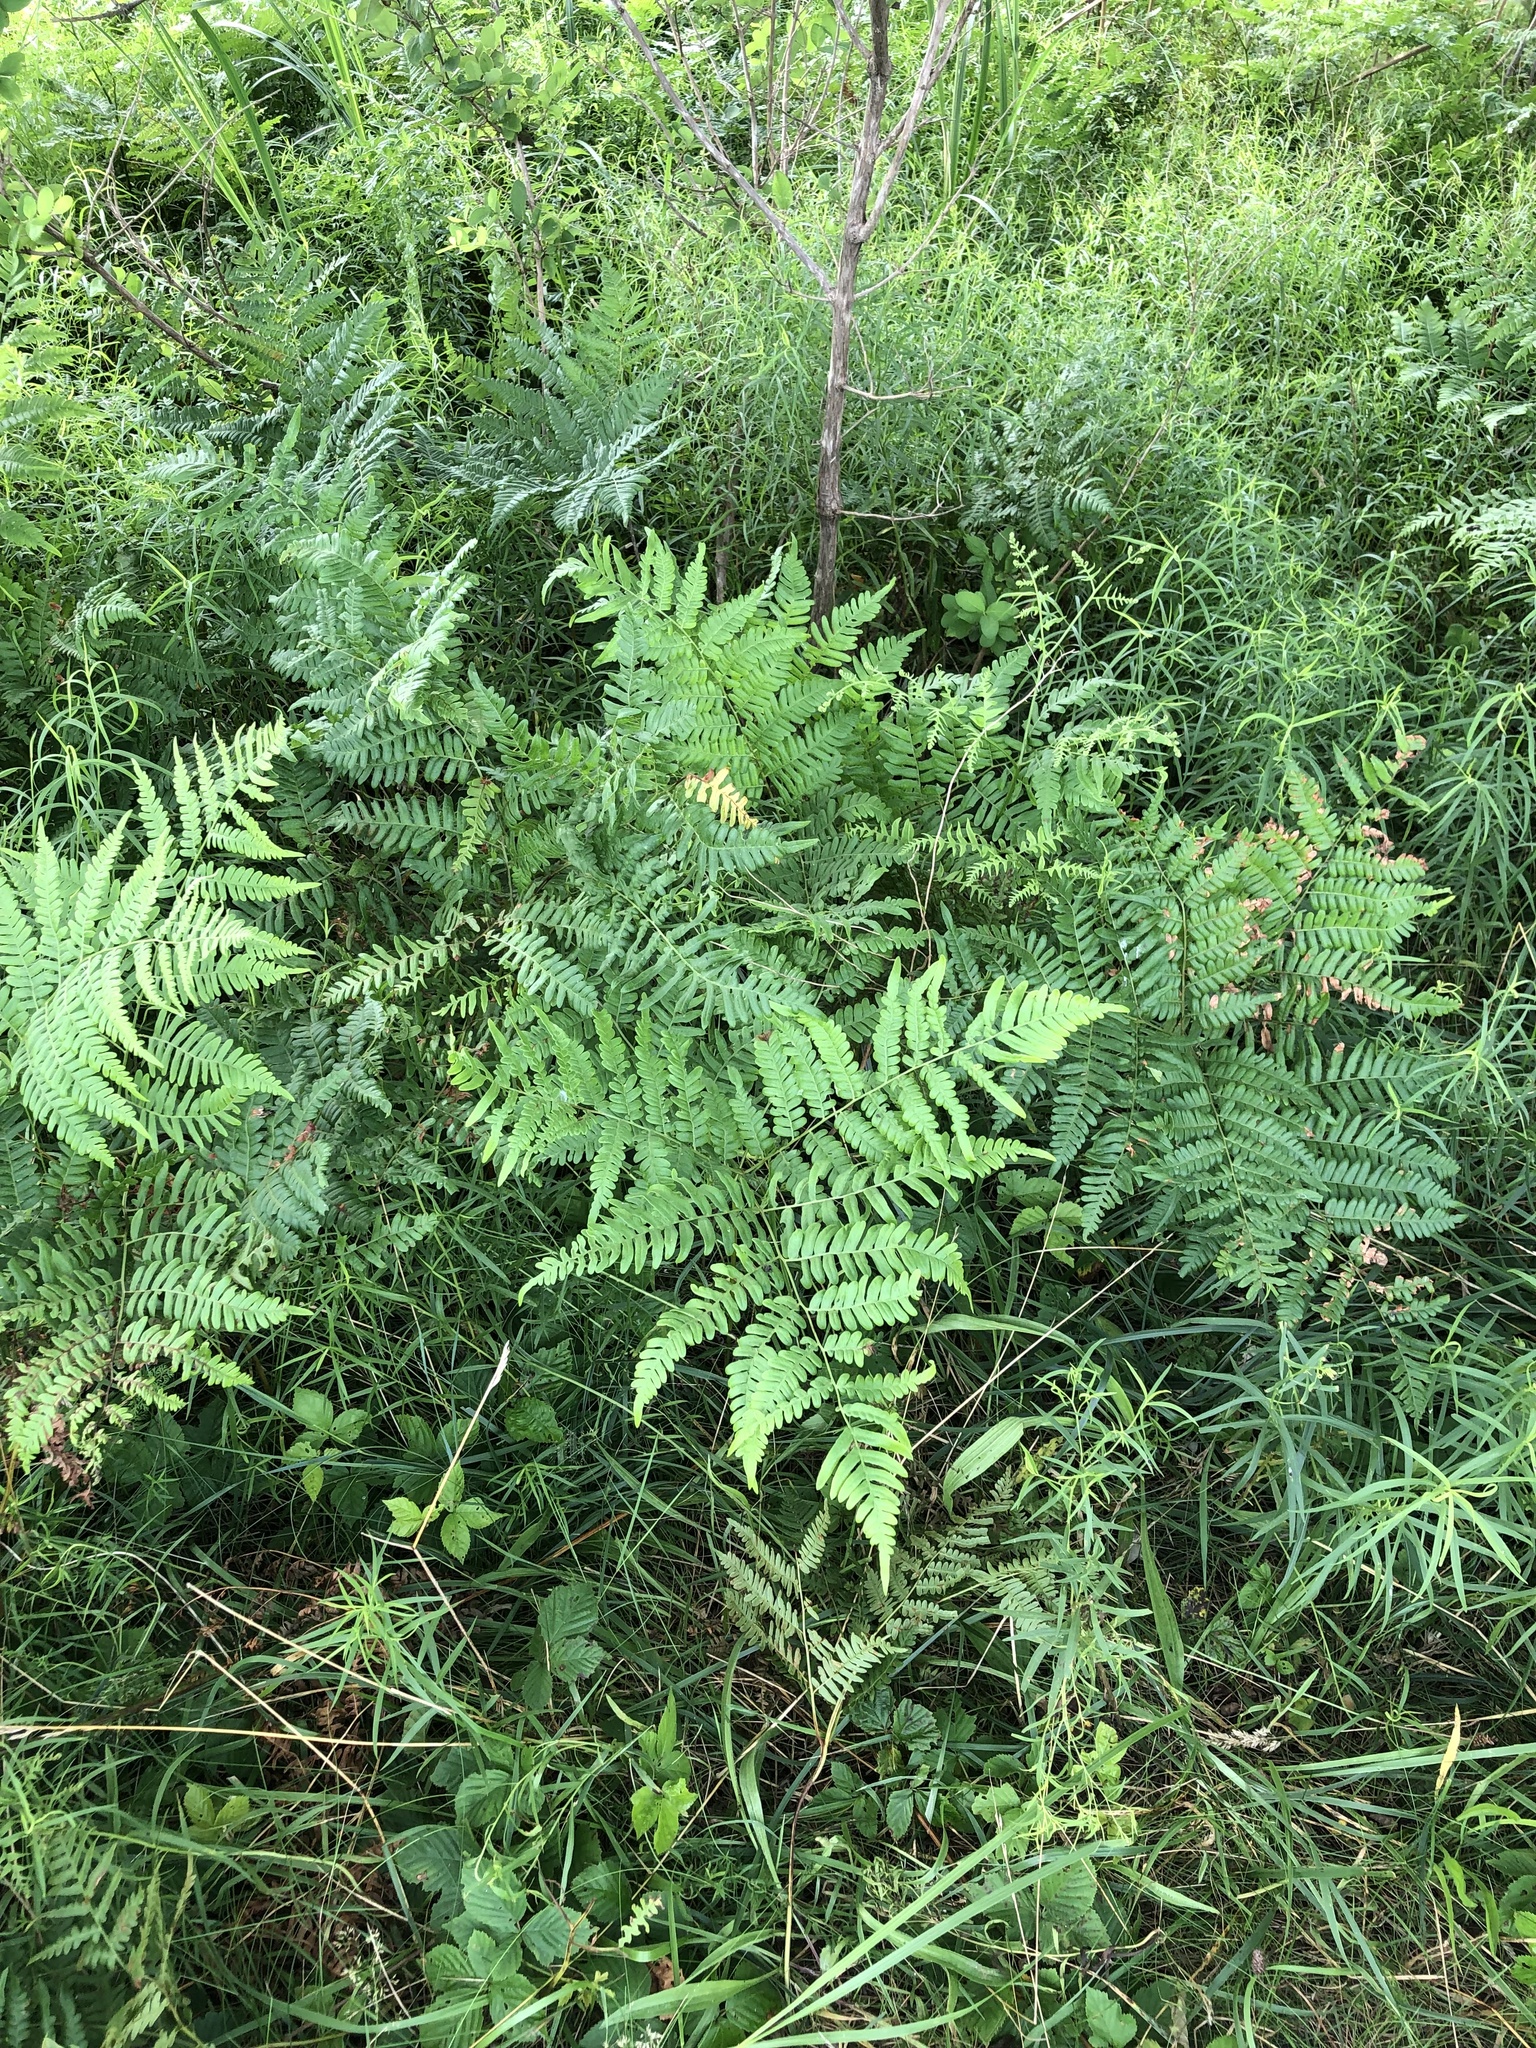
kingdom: Plantae
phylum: Tracheophyta
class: Polypodiopsida
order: Polypodiales
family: Dennstaedtiaceae
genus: Pteridium
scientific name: Pteridium aquilinum
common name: Bracken
